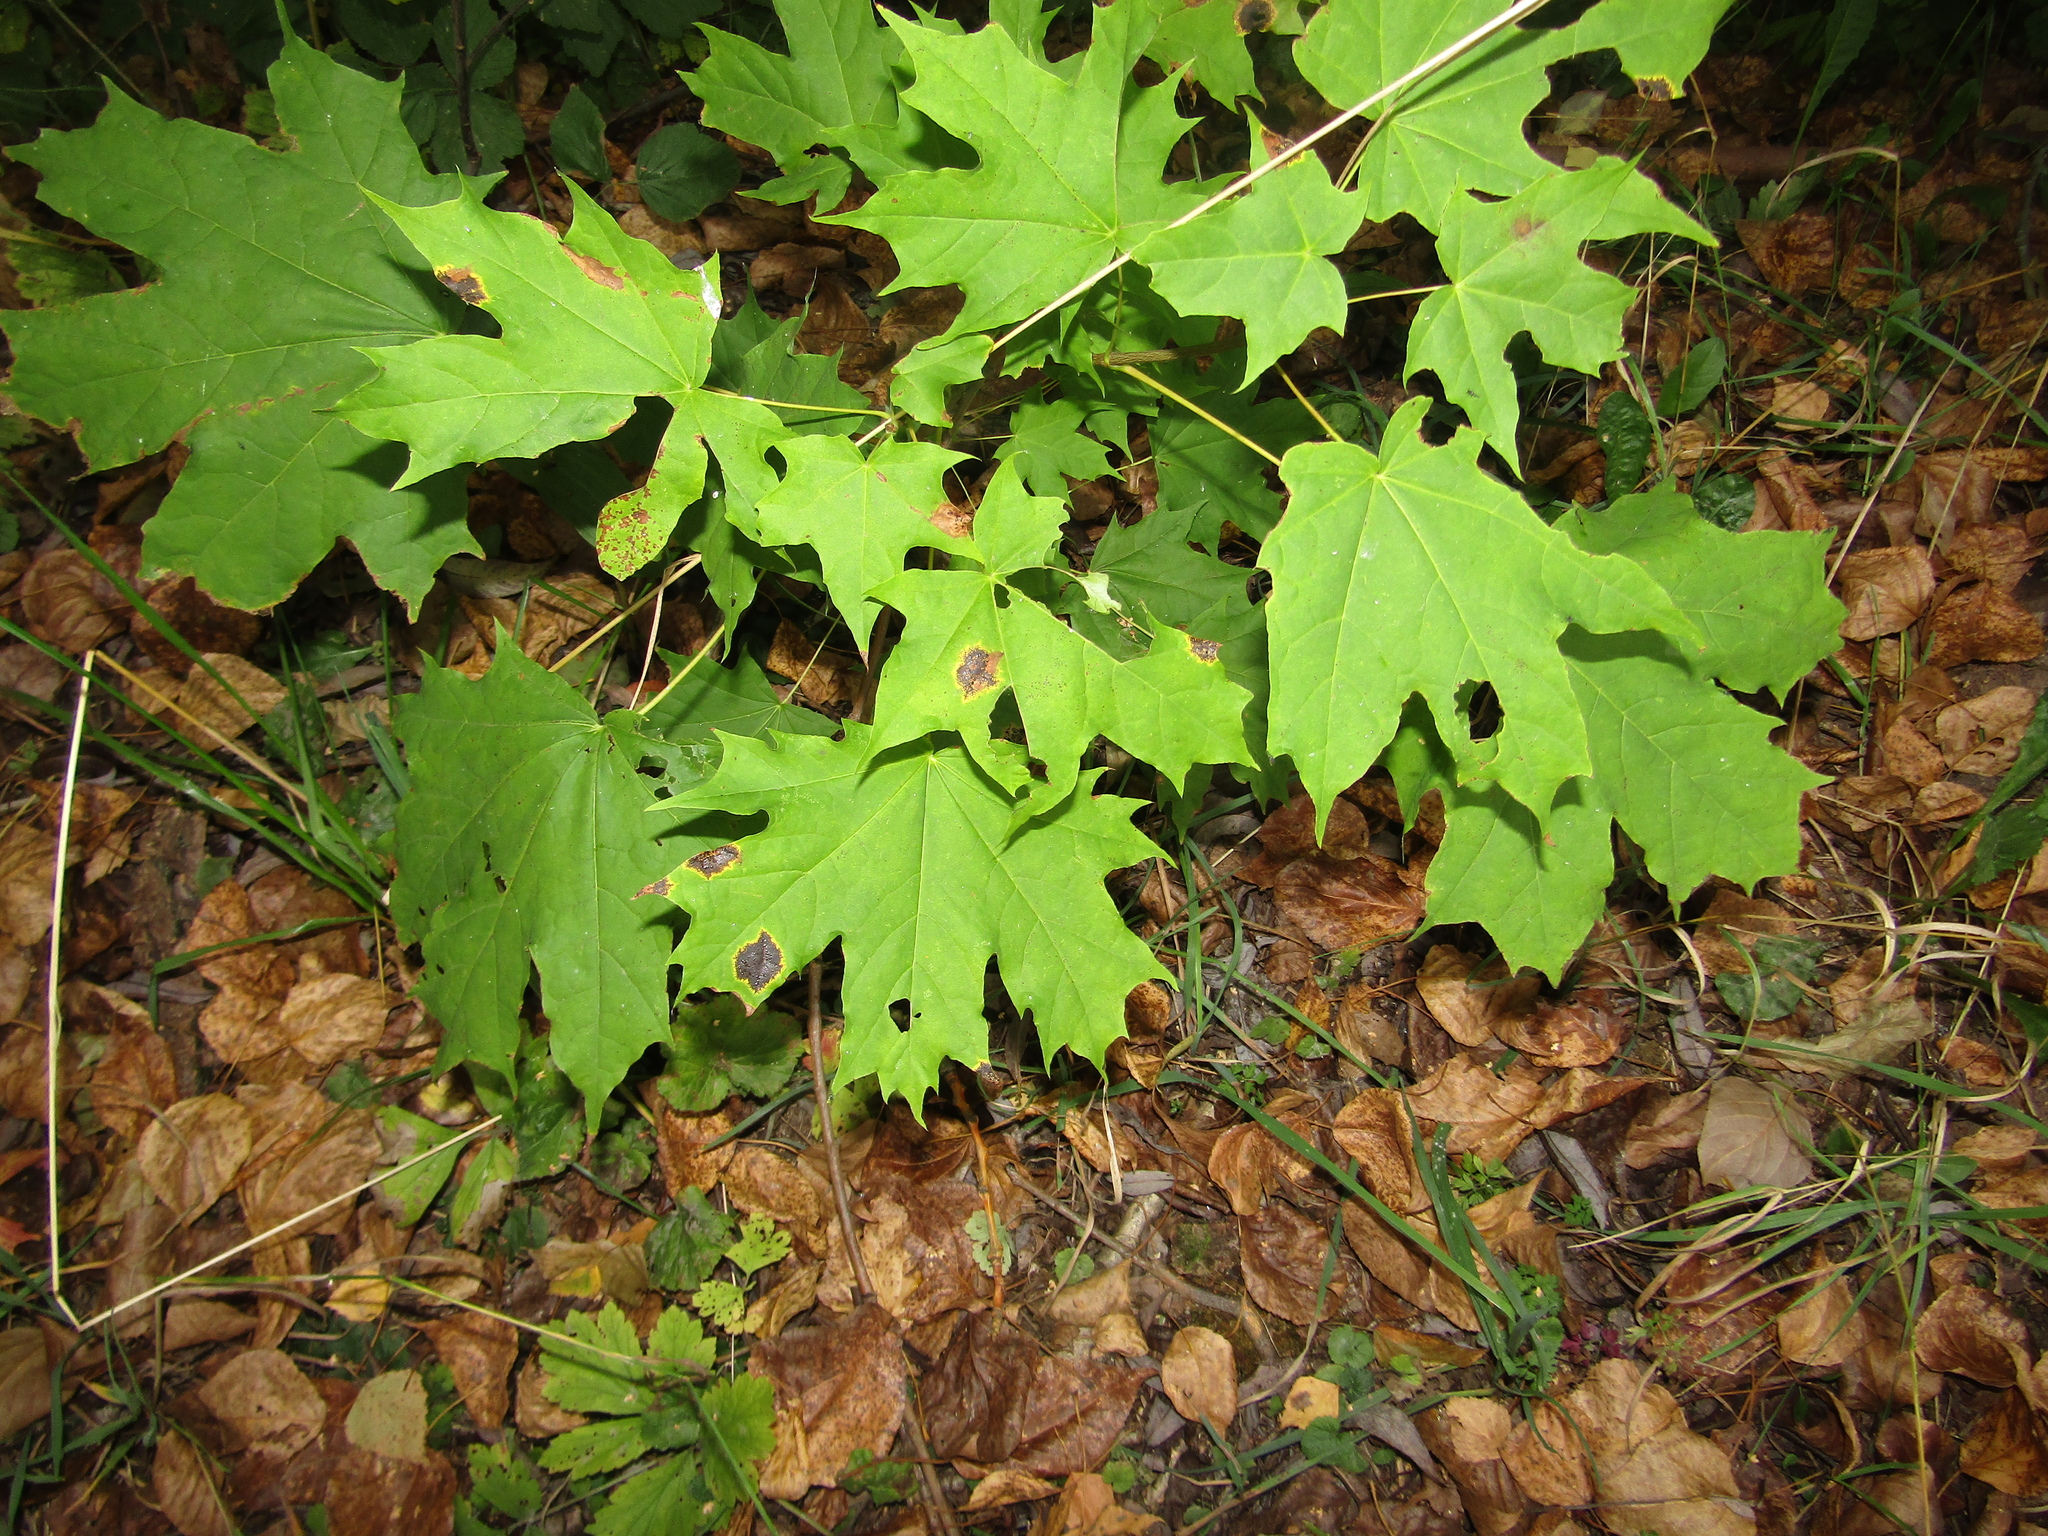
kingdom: Plantae
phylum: Tracheophyta
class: Magnoliopsida
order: Sapindales
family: Sapindaceae
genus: Acer
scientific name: Acer platanoides
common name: Norway maple
